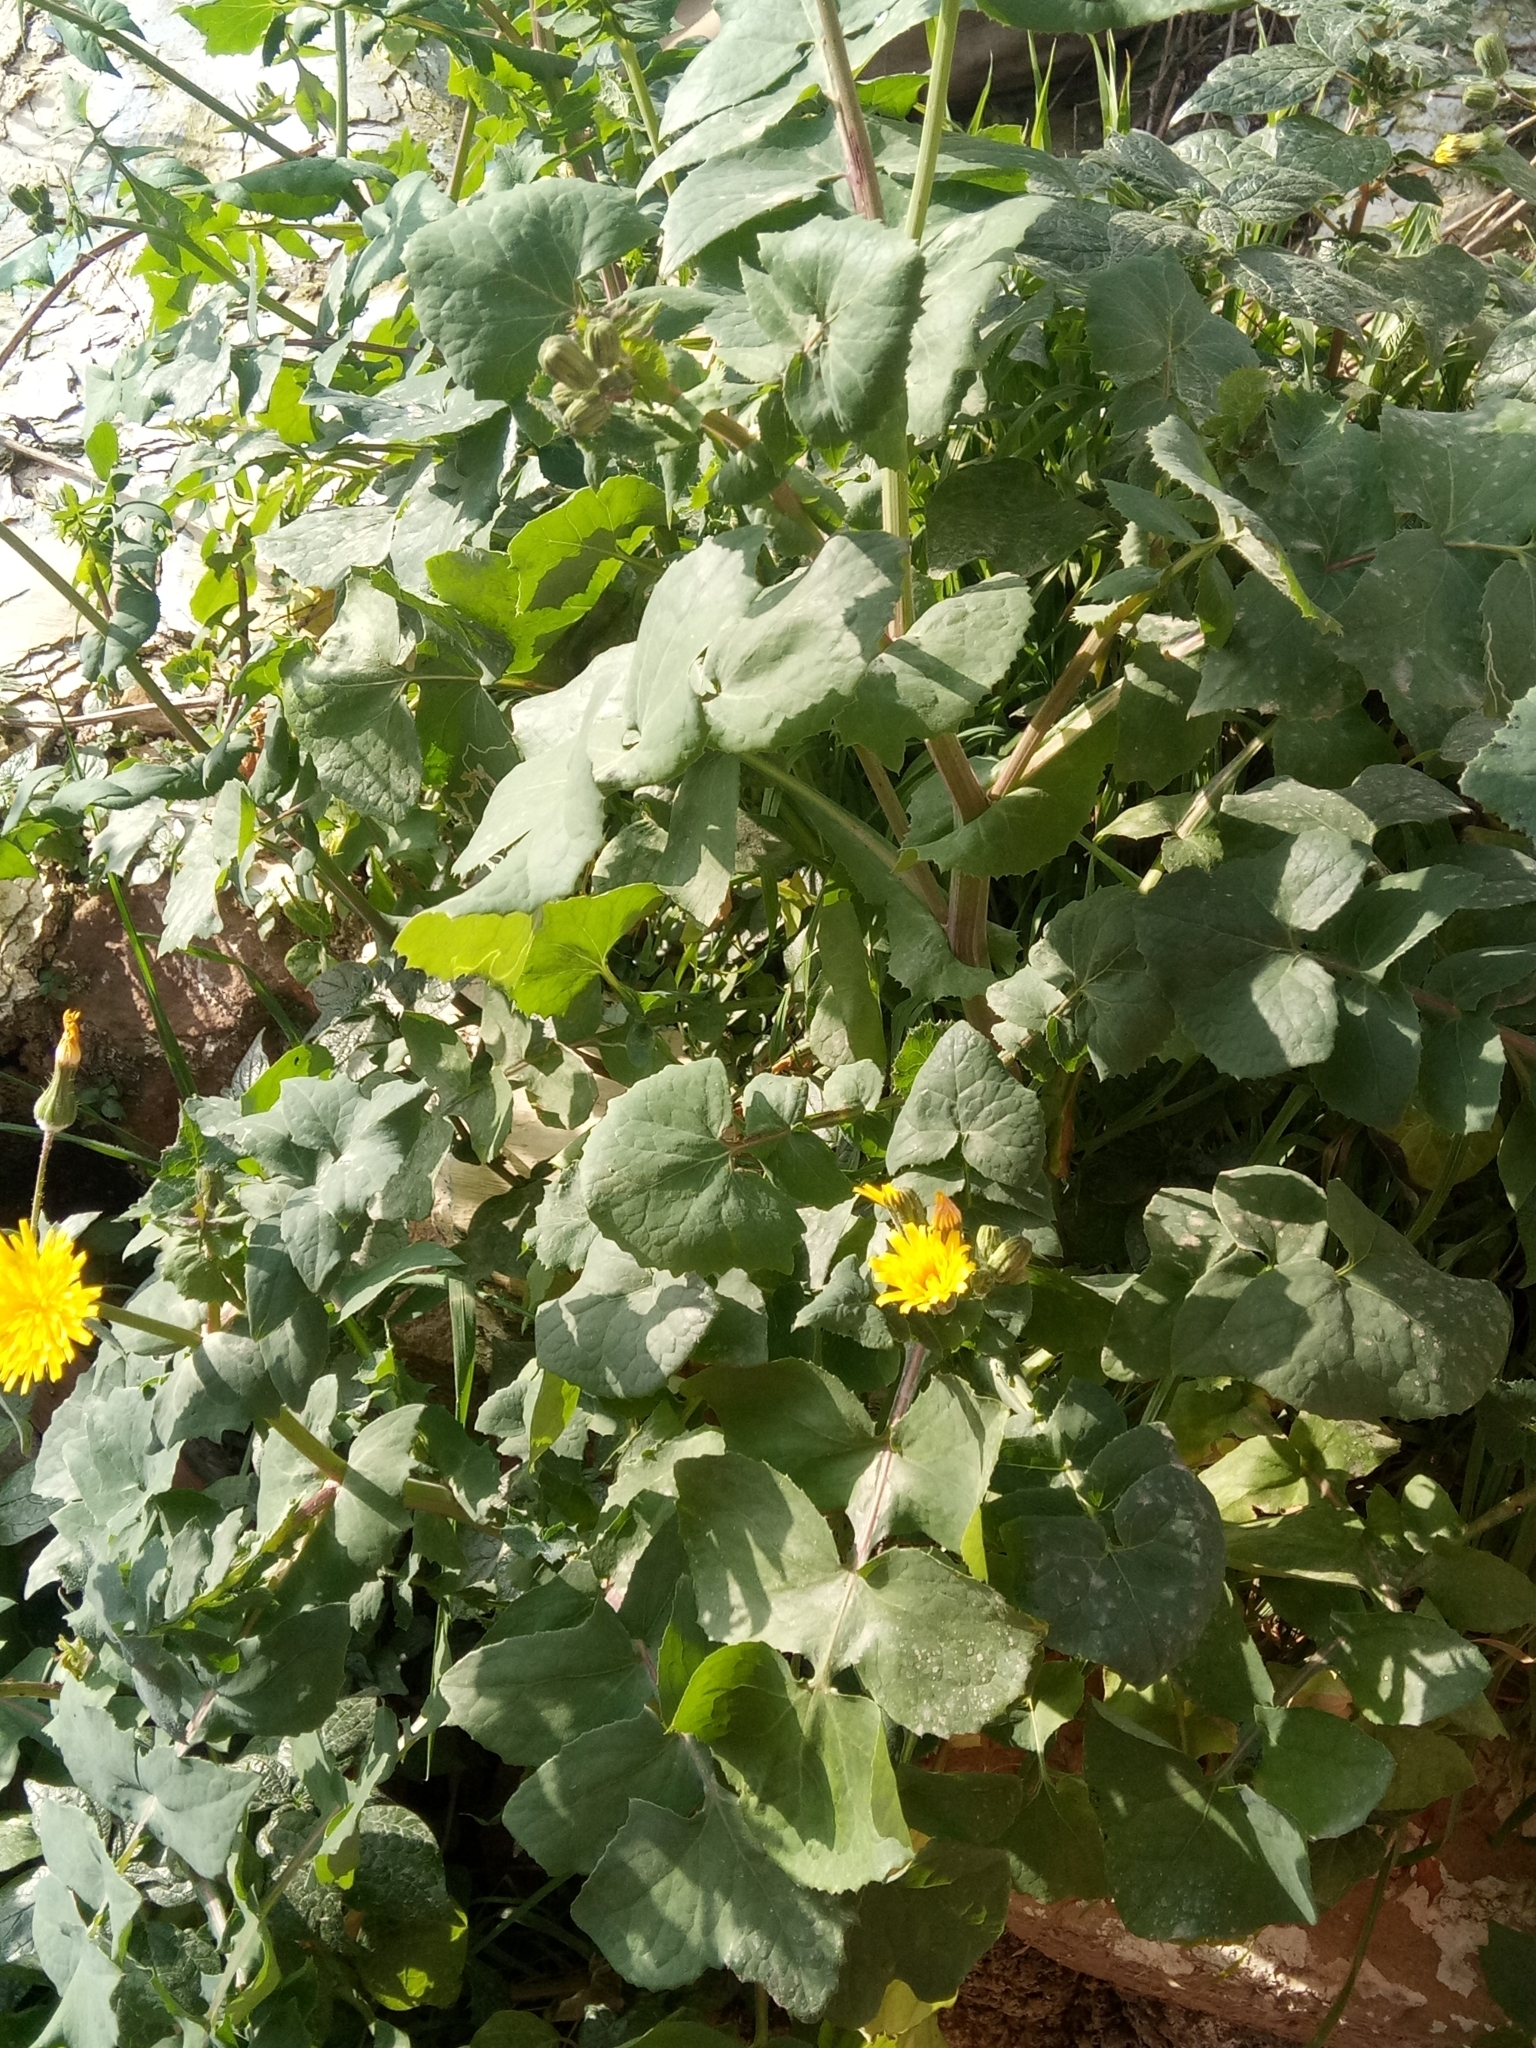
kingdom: Plantae
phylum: Tracheophyta
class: Magnoliopsida
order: Asterales
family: Asteraceae
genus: Sonchus
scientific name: Sonchus tenerrimus
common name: Clammy sowthistle
